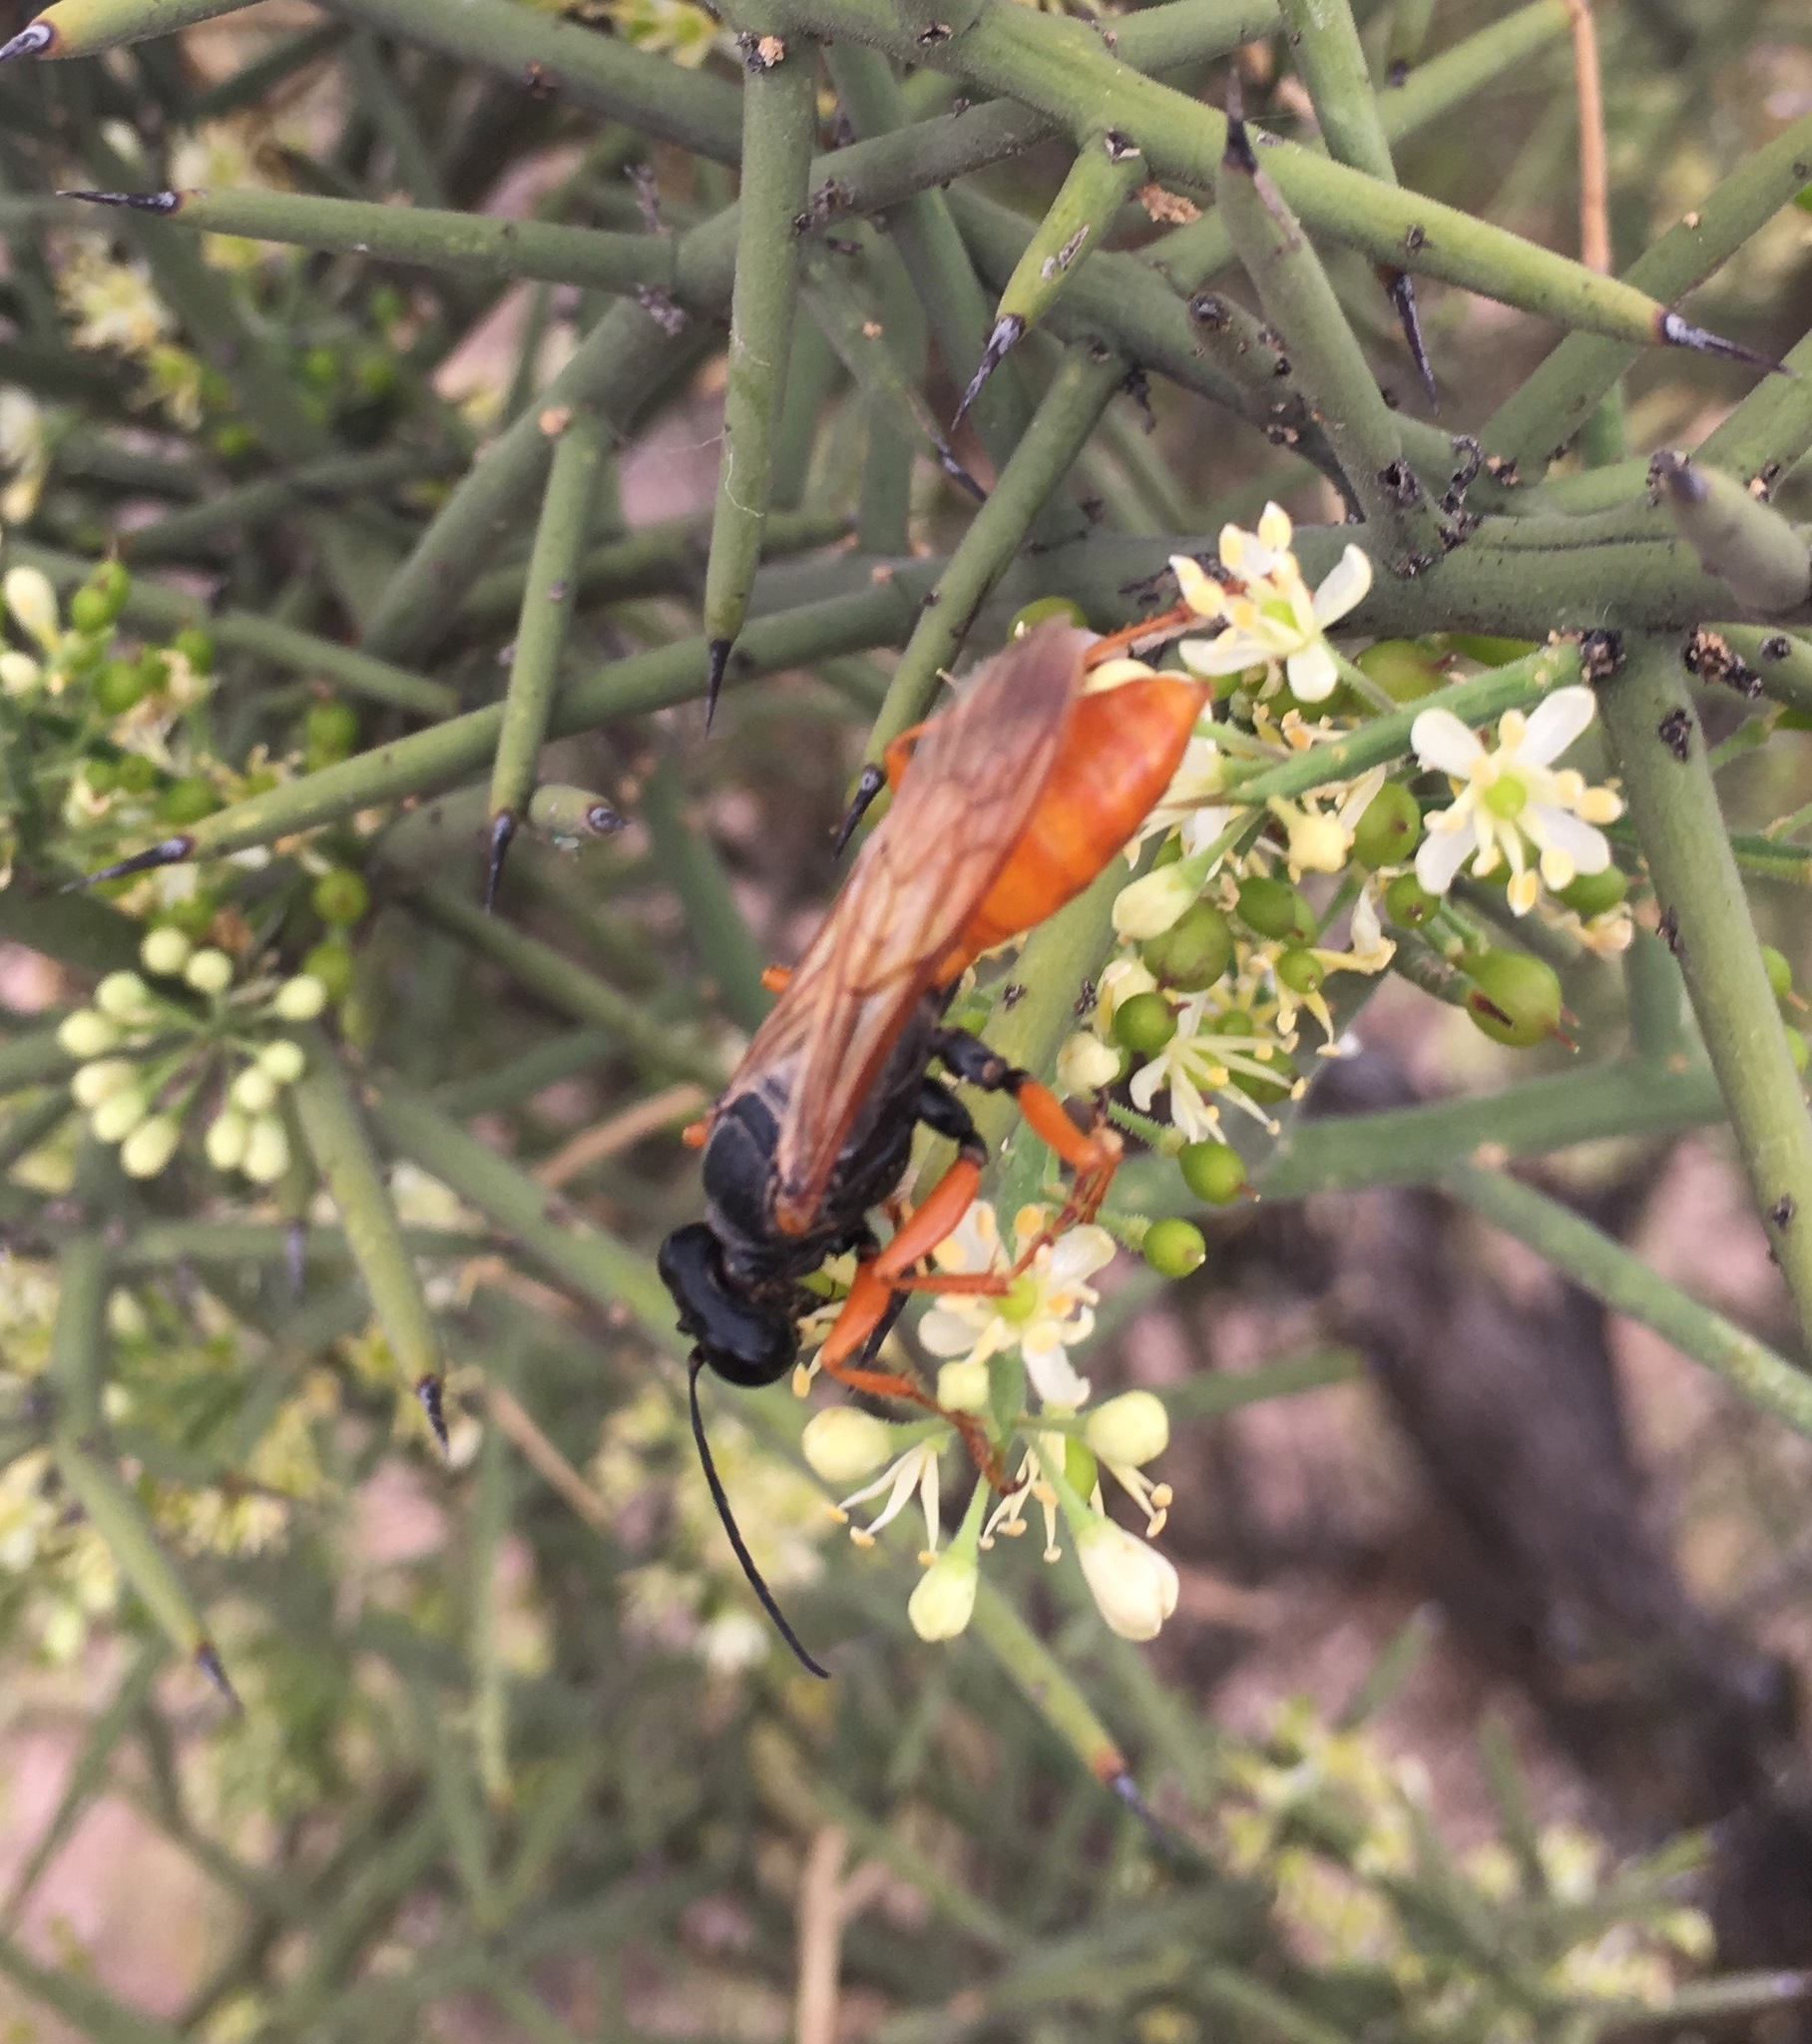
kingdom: Animalia
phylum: Arthropoda
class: Insecta
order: Hymenoptera
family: Sphecidae
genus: Sphex
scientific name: Sphex ashmeadi
